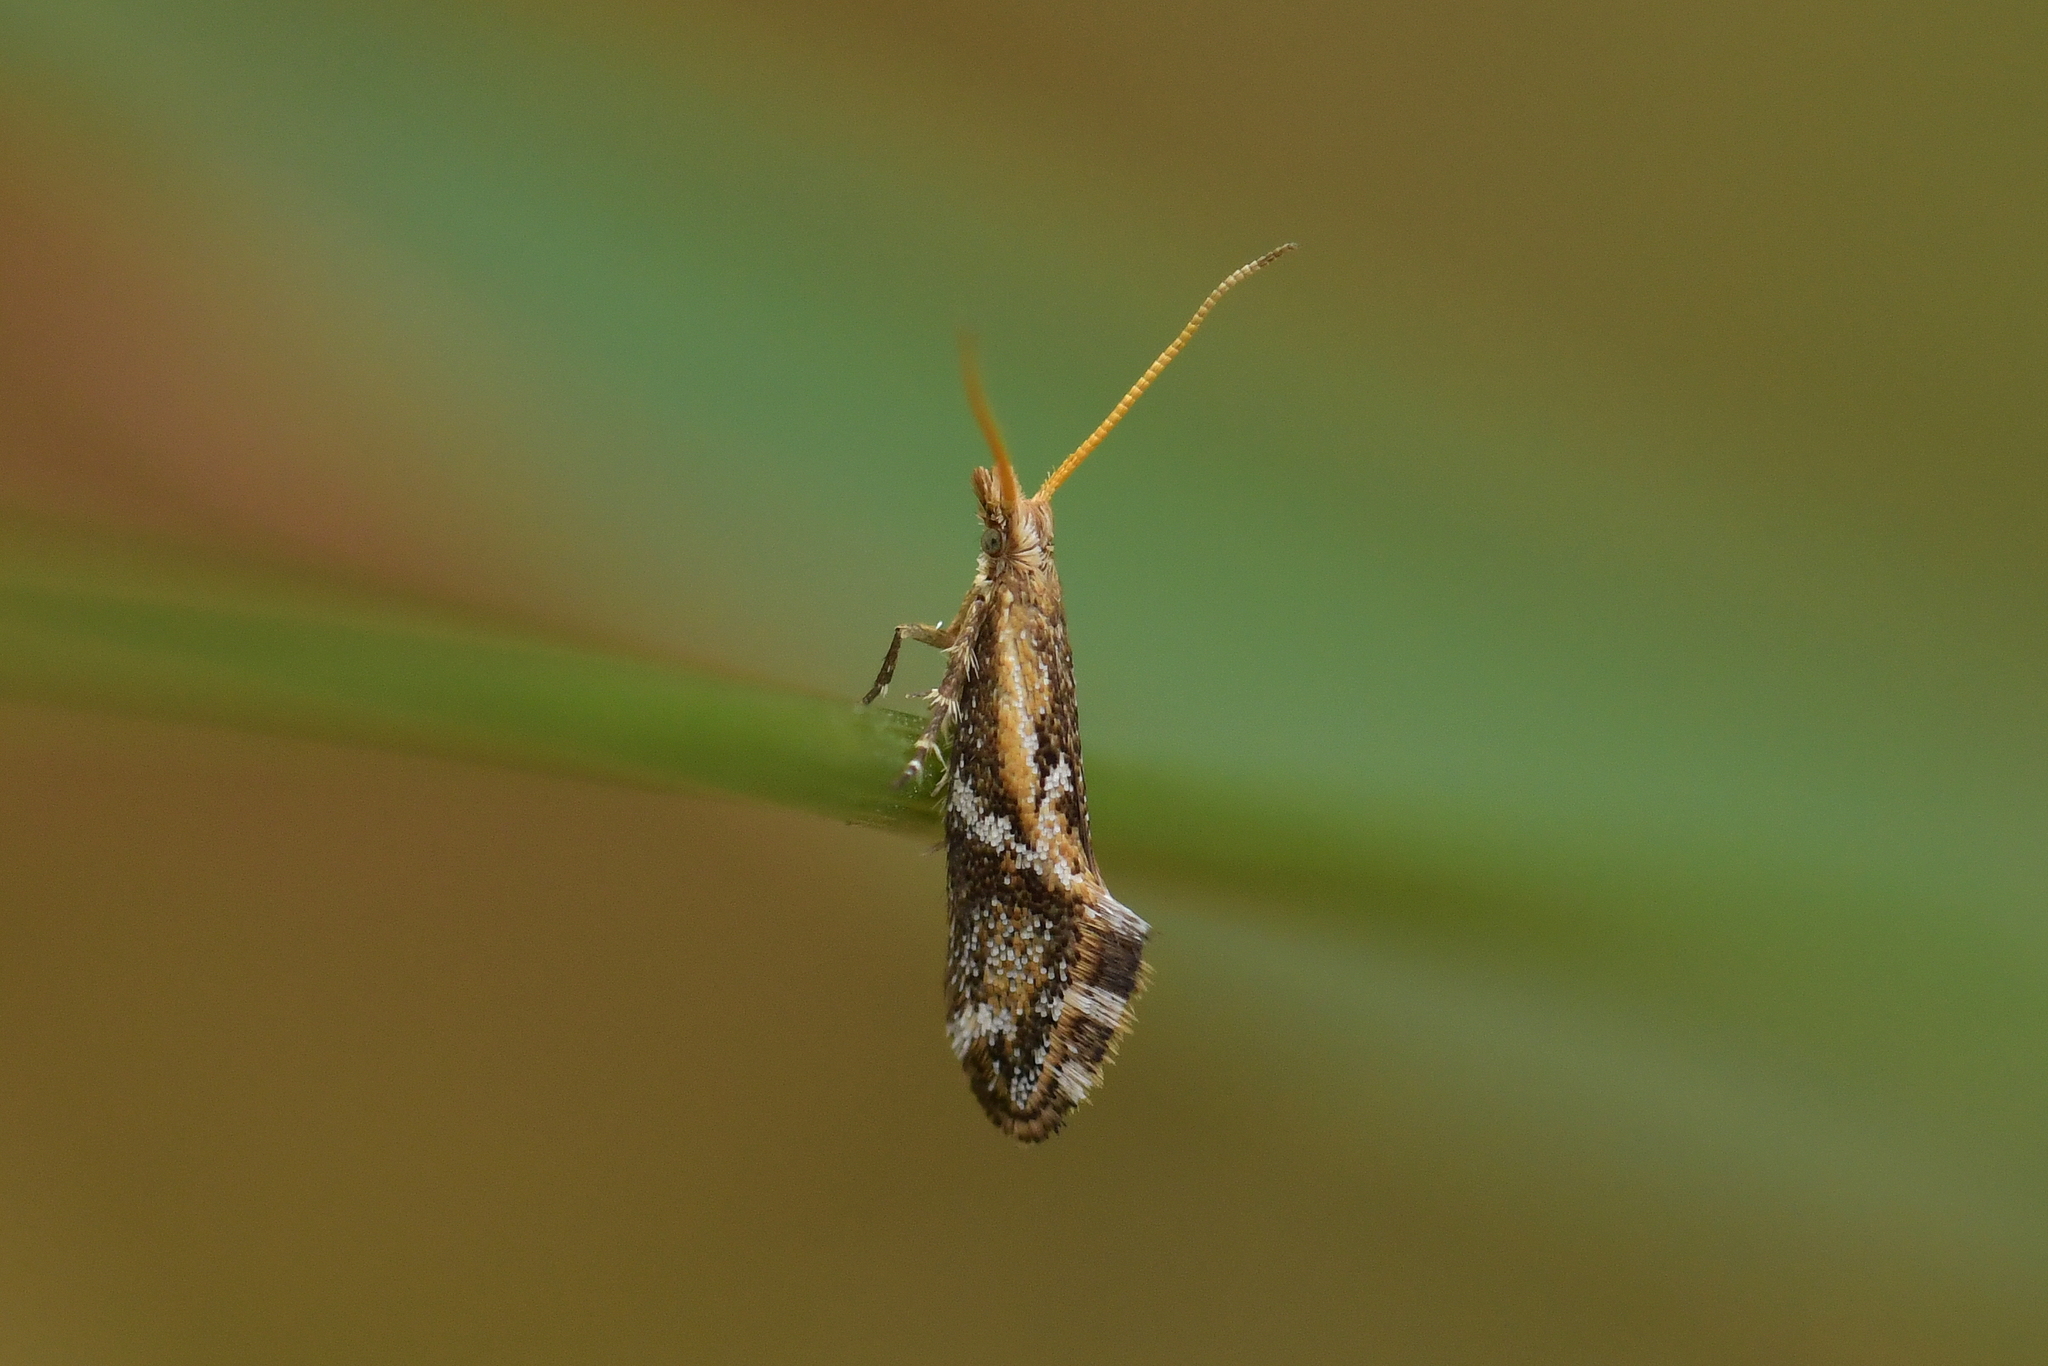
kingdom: Animalia
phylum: Arthropoda
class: Insecta
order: Lepidoptera
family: Mnesarchaeidae
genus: Mnesarchaea
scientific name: Mnesarchaea paracosma
